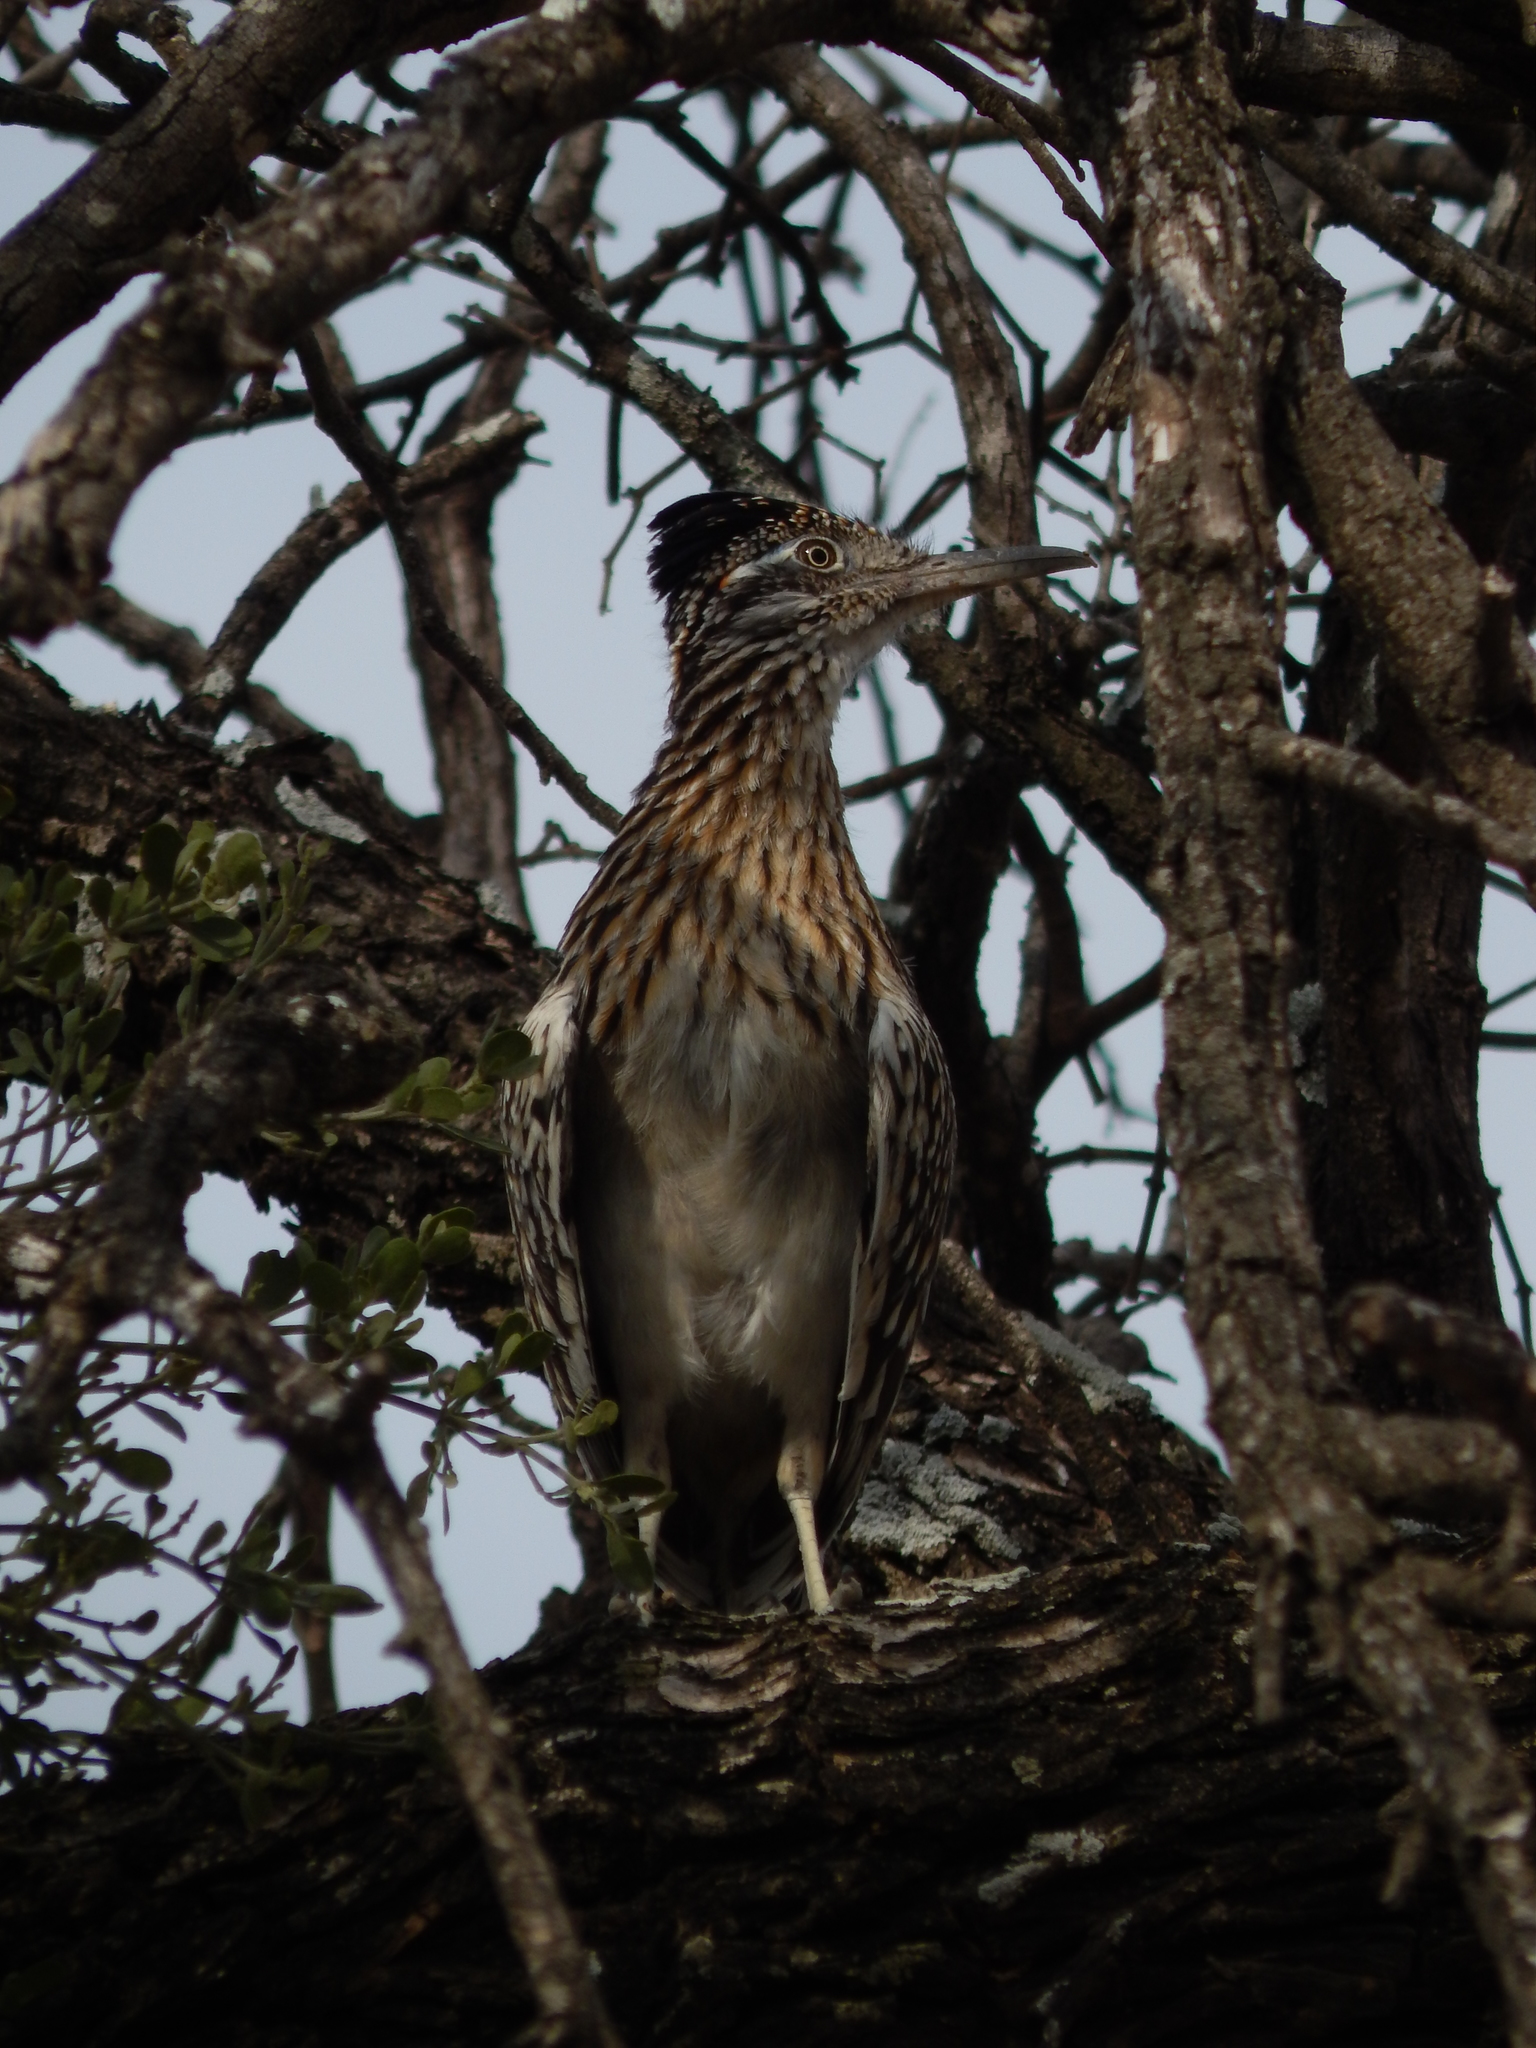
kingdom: Animalia
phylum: Chordata
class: Aves
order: Cuculiformes
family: Cuculidae
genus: Geococcyx
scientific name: Geococcyx californianus
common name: Greater roadrunner
